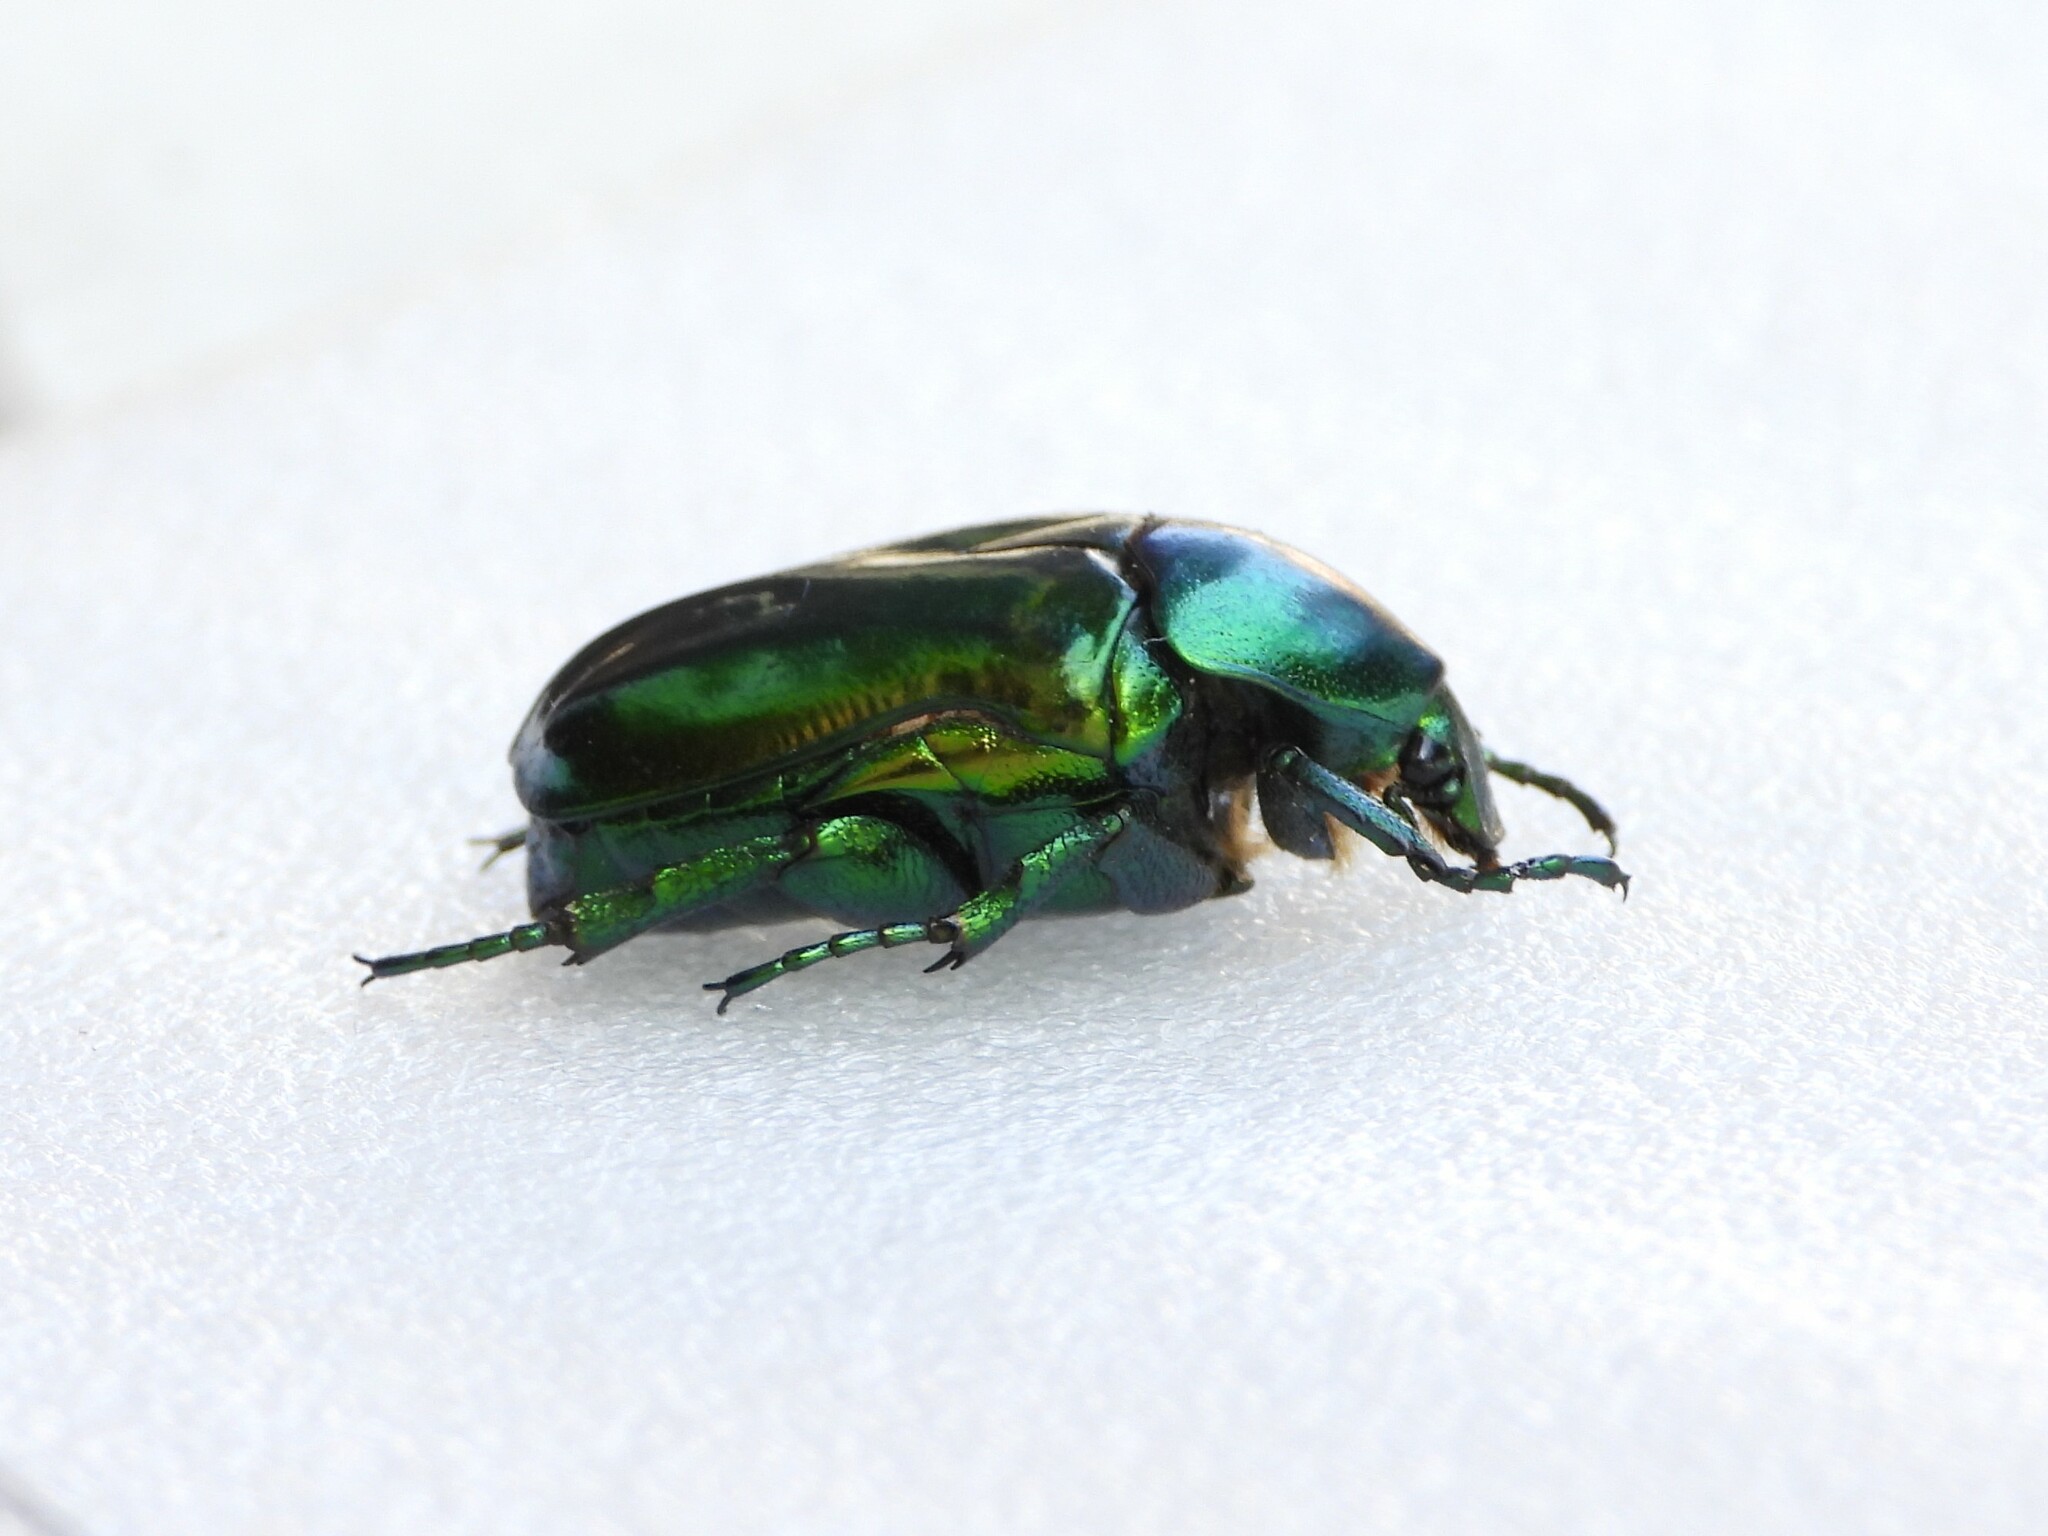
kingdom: Animalia
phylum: Arthropoda
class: Insecta
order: Coleoptera
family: Scarabaeidae
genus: Protaetia
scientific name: Protaetia speciosissima
